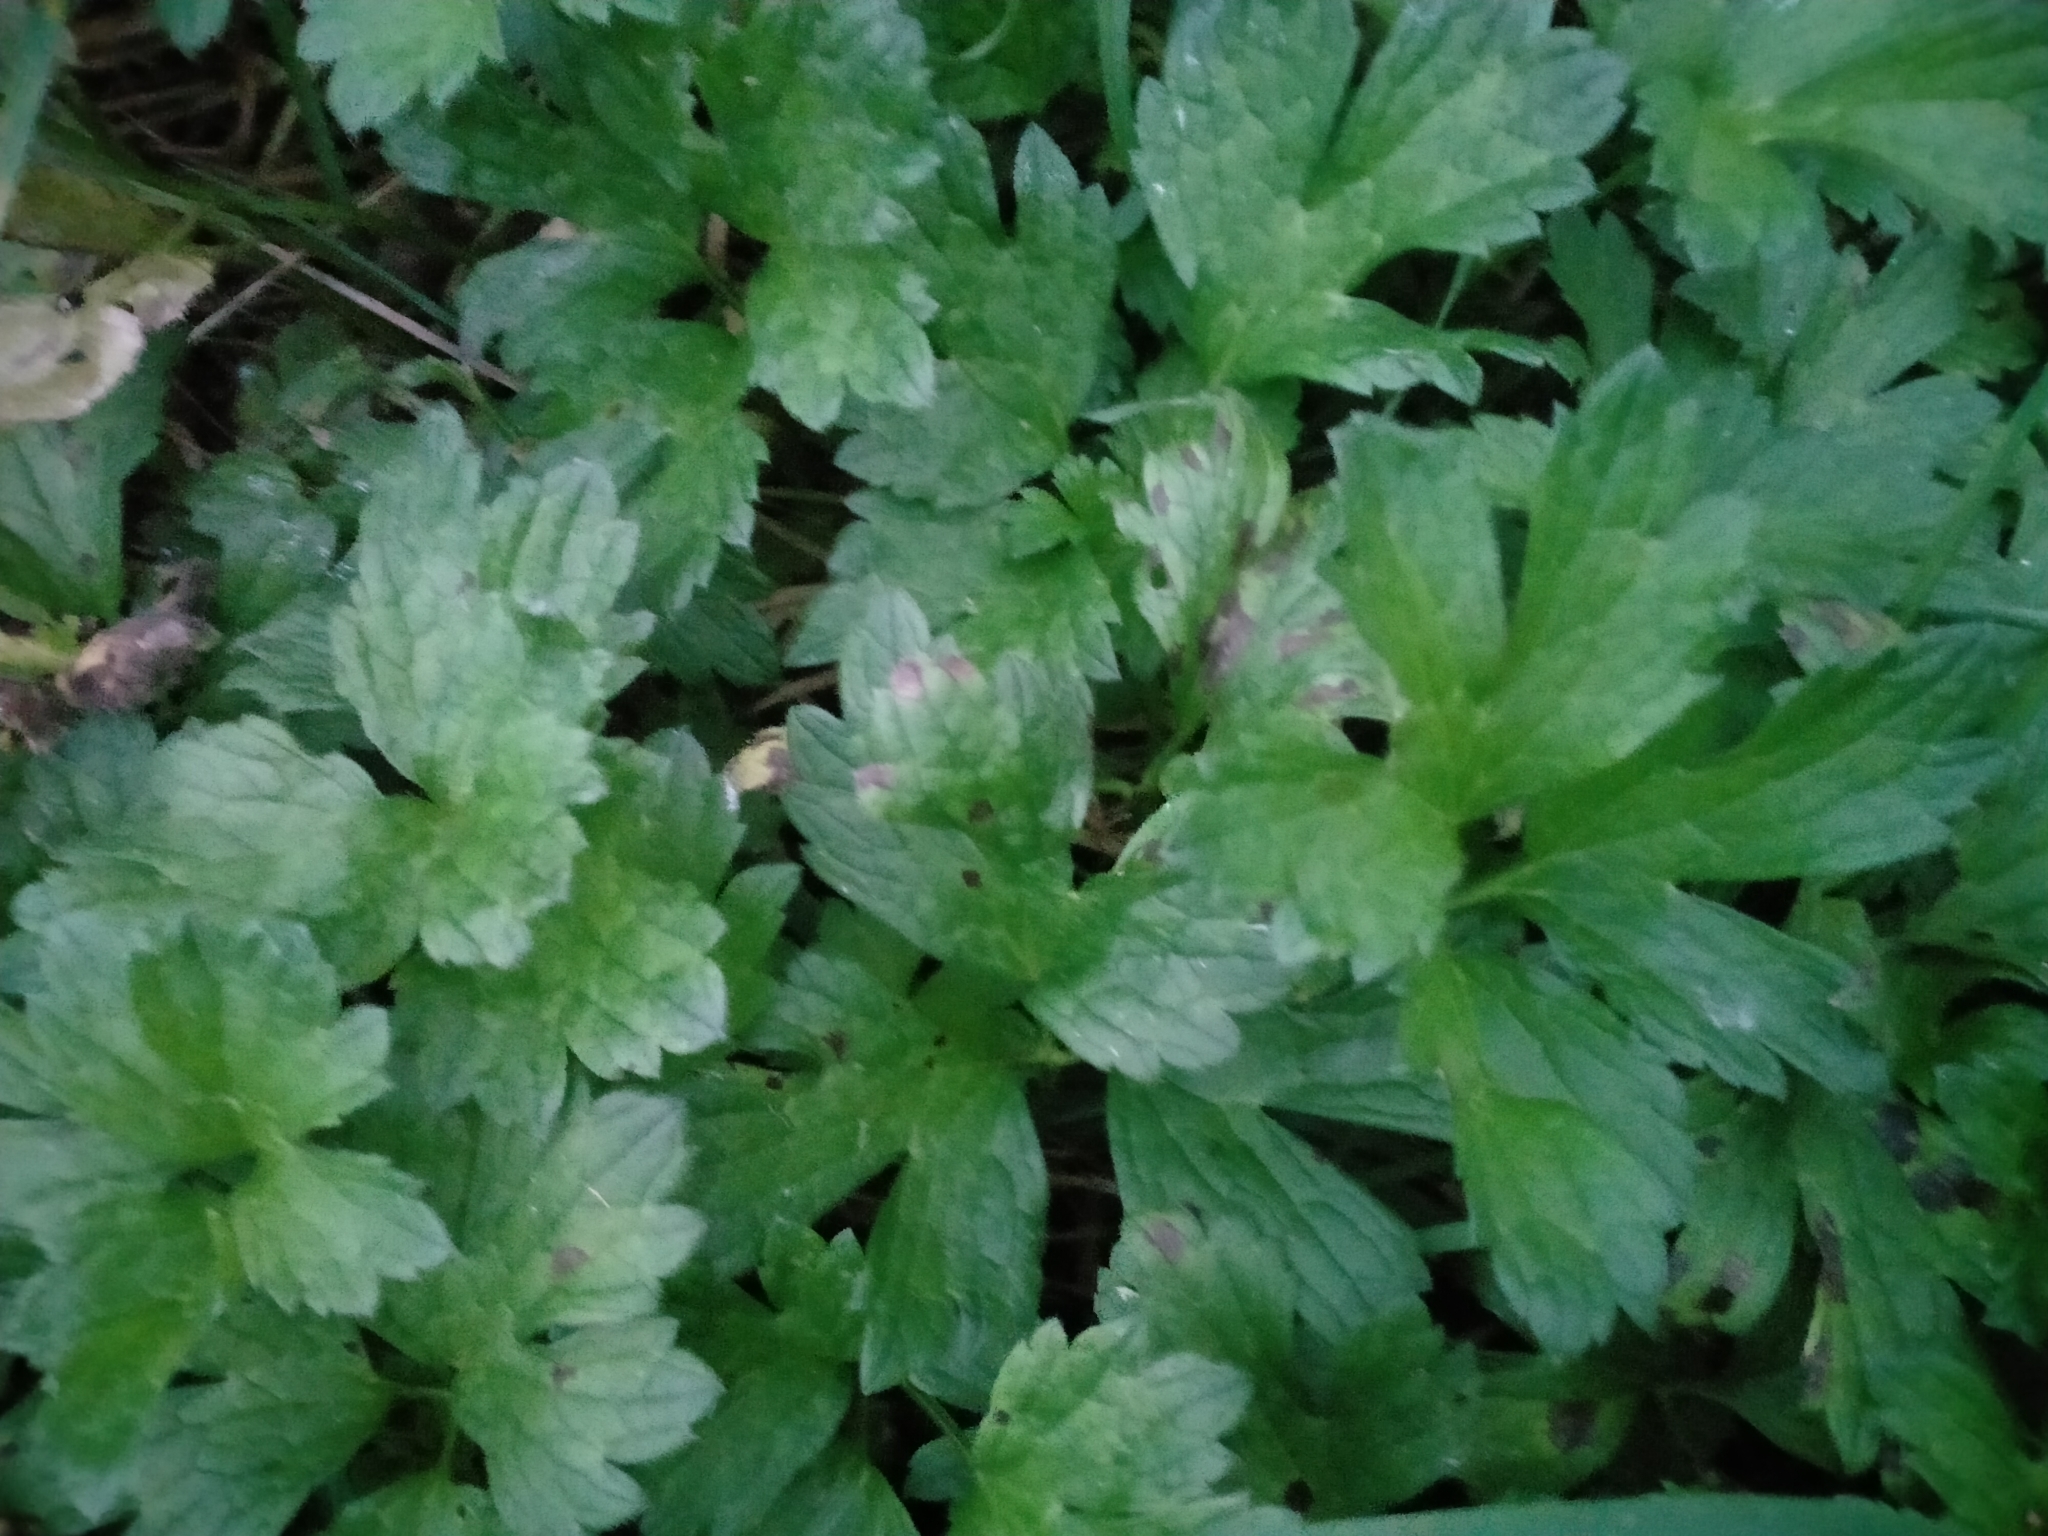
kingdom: Plantae
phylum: Tracheophyta
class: Magnoliopsida
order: Ranunculales
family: Ranunculaceae
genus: Ranunculus
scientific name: Ranunculus repens
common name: Creeping buttercup
